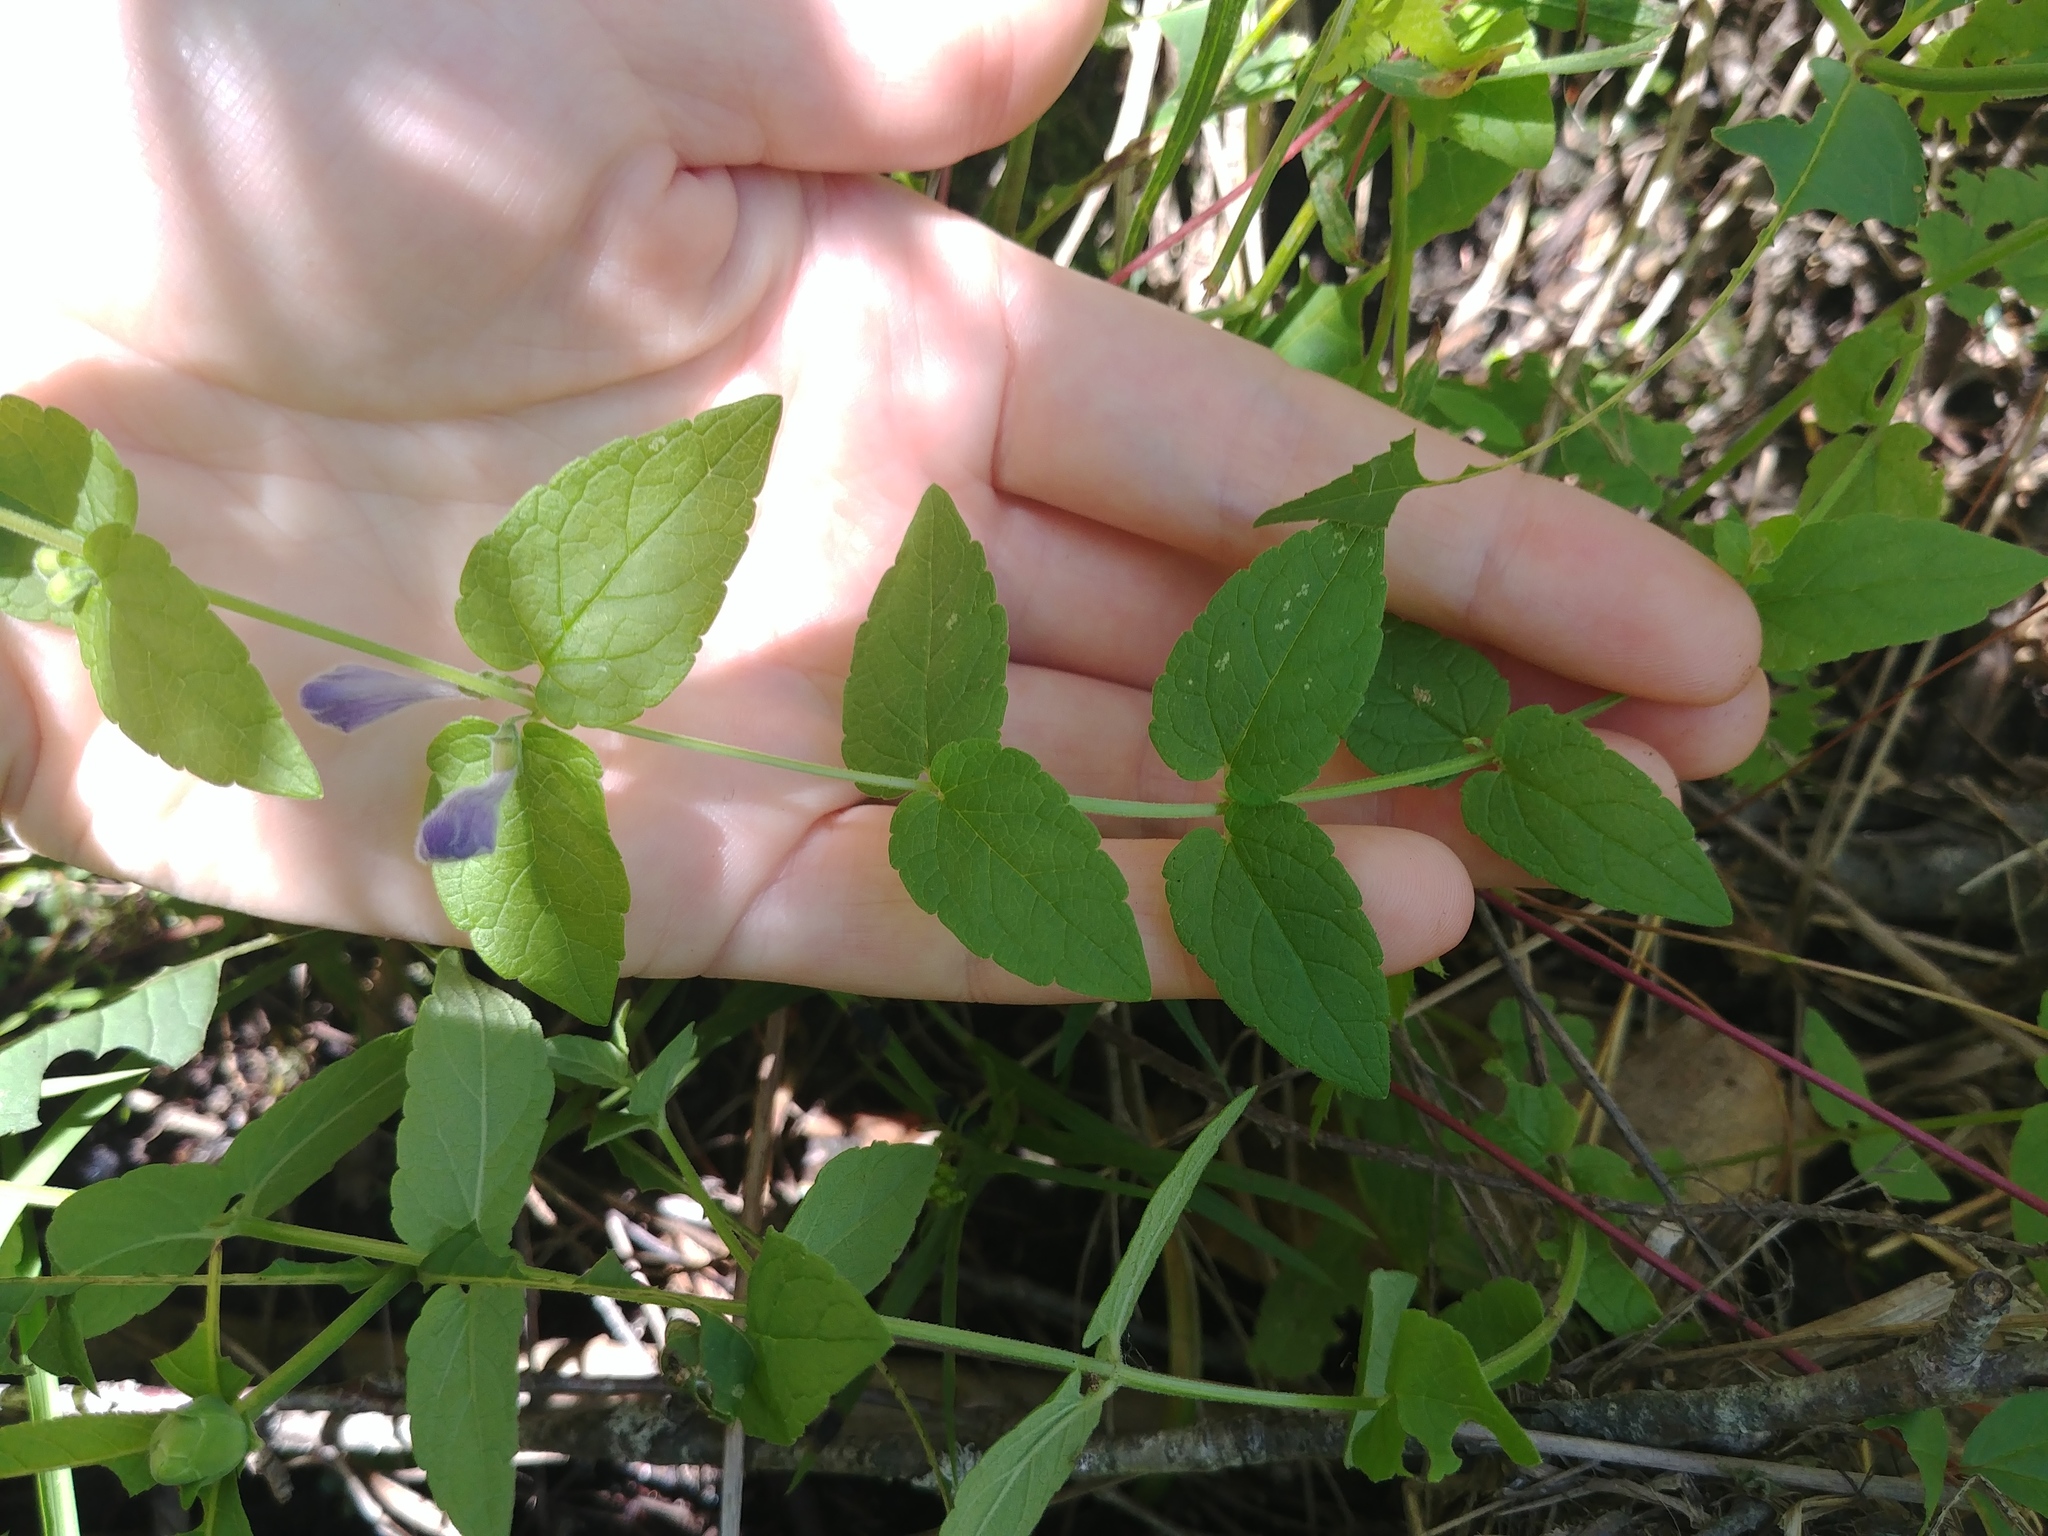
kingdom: Plantae
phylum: Tracheophyta
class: Magnoliopsida
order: Lamiales
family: Lamiaceae
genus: Scutellaria
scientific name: Scutellaria galericulata
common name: Skullcap
